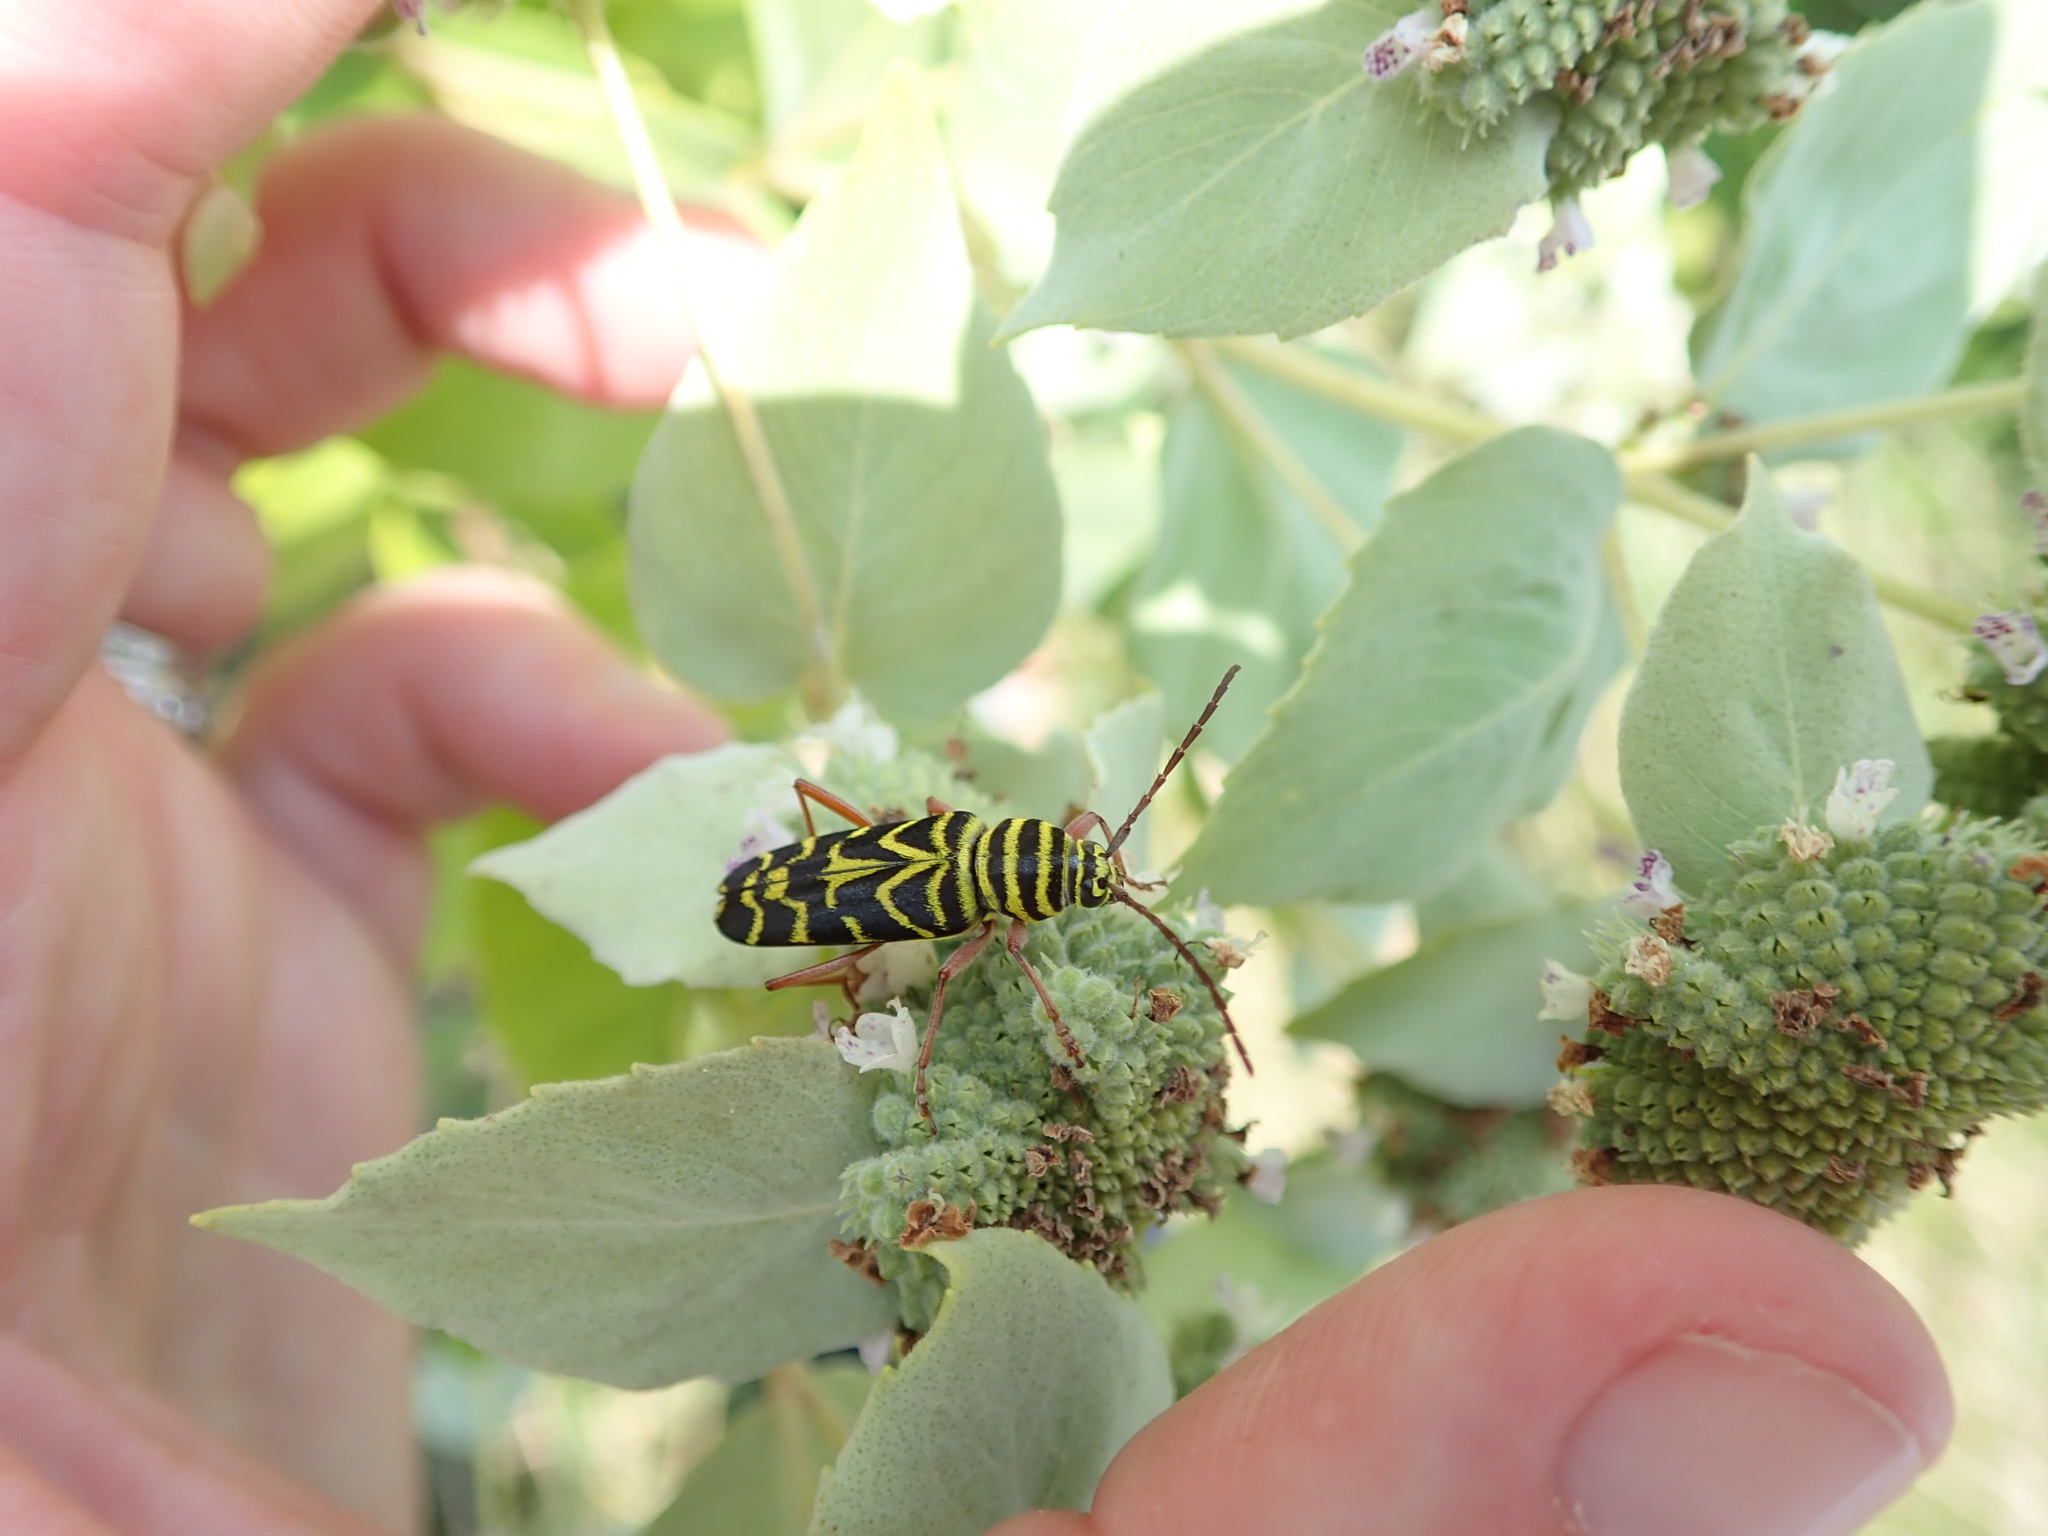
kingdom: Animalia
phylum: Arthropoda
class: Insecta
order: Coleoptera
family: Cerambycidae
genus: Megacyllene
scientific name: Megacyllene robiniae
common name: Locust borer
